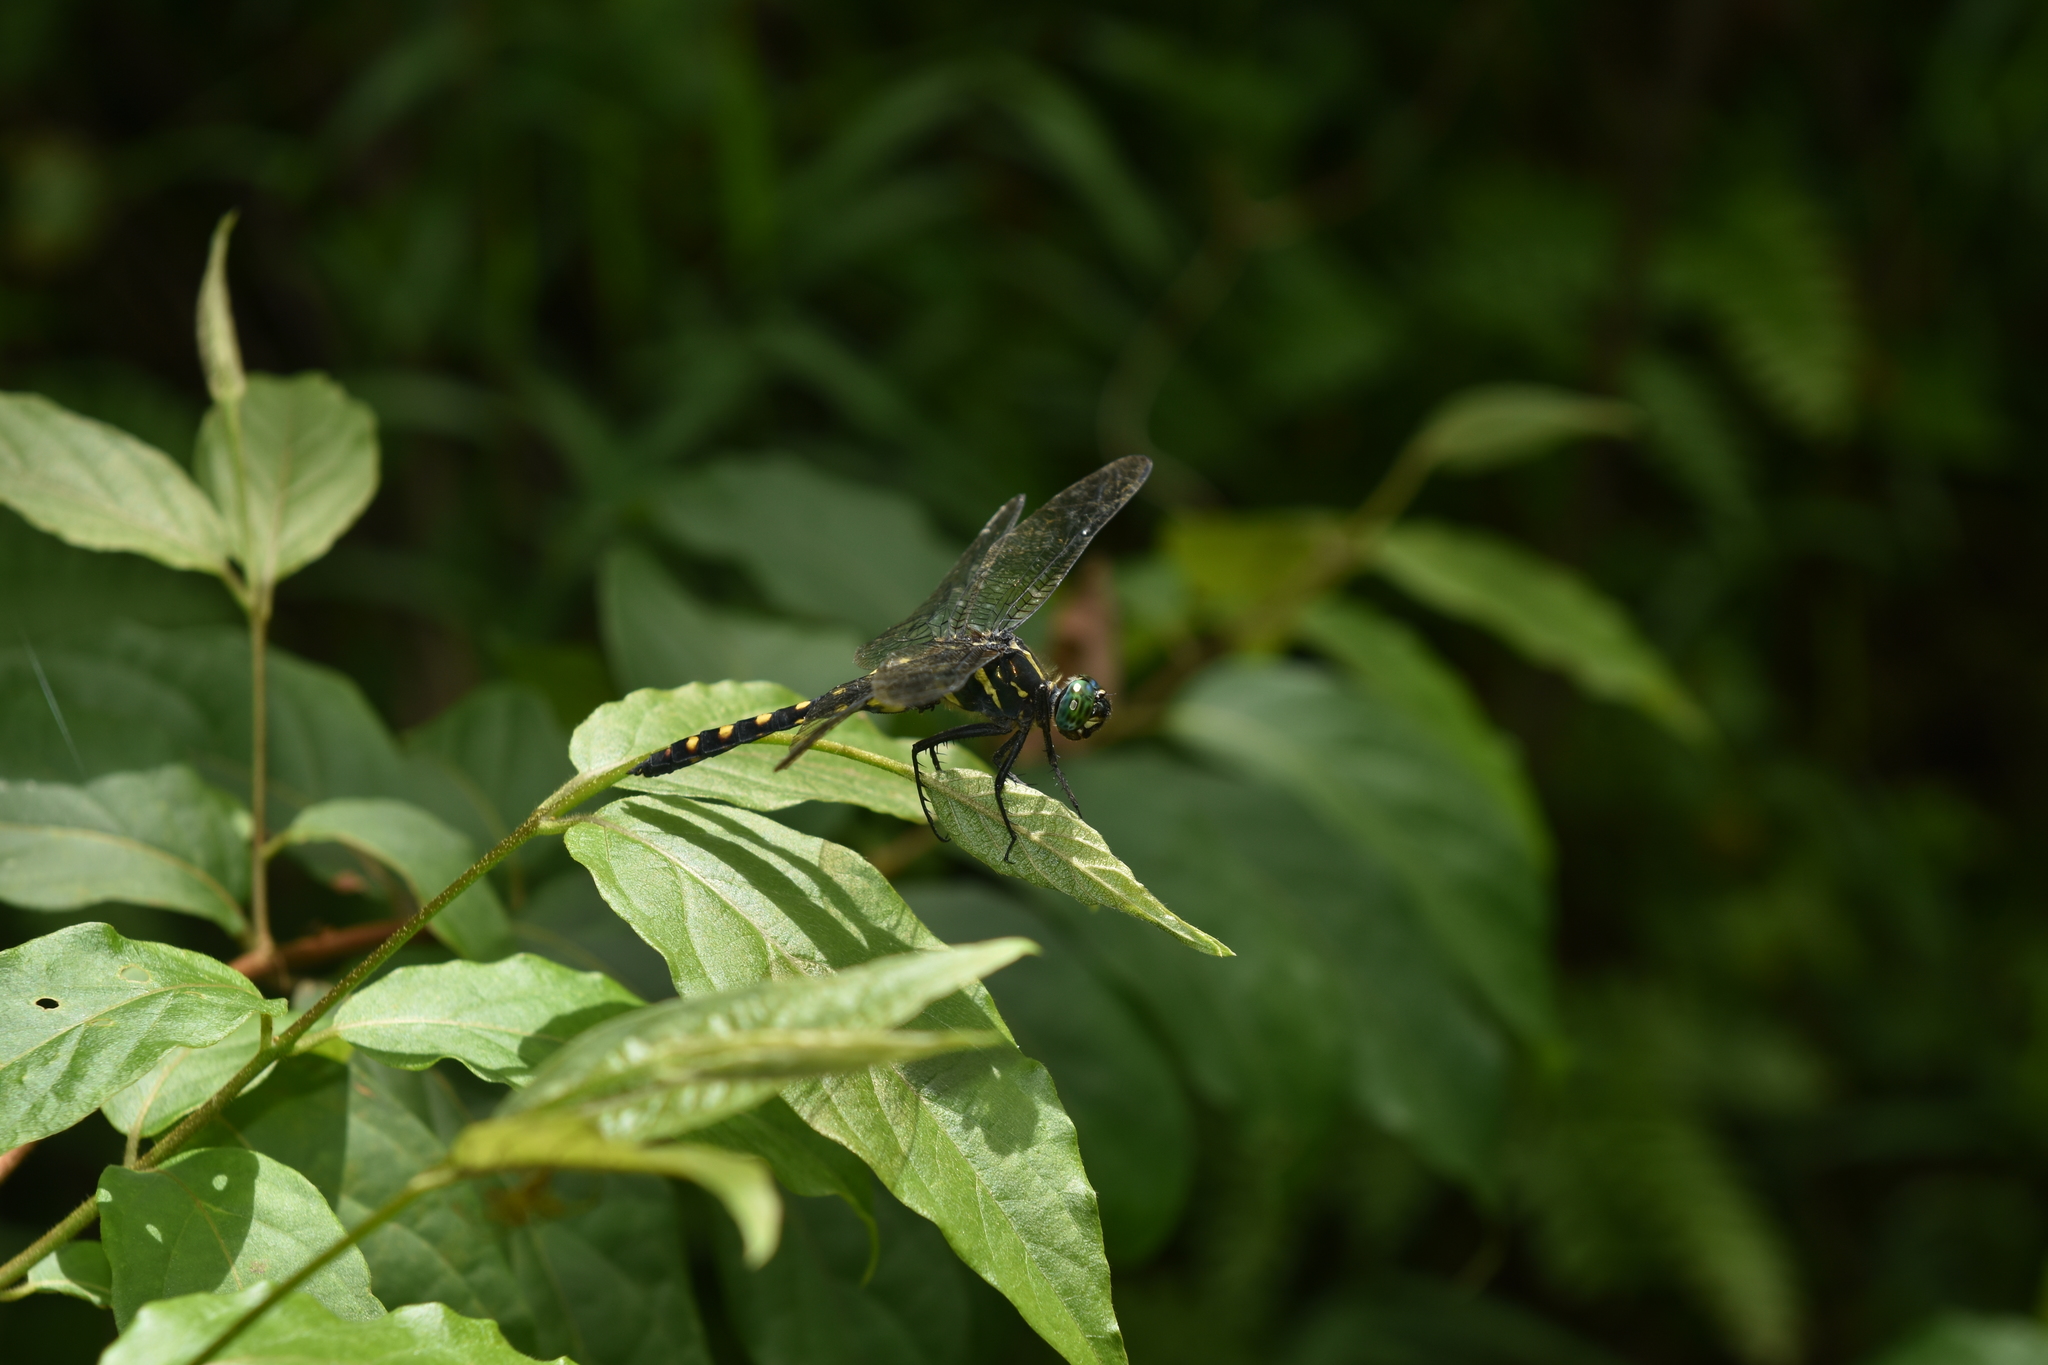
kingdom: Animalia
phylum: Arthropoda
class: Insecta
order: Odonata
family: Libellulidae
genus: Onychothemis
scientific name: Onychothemis testacea
